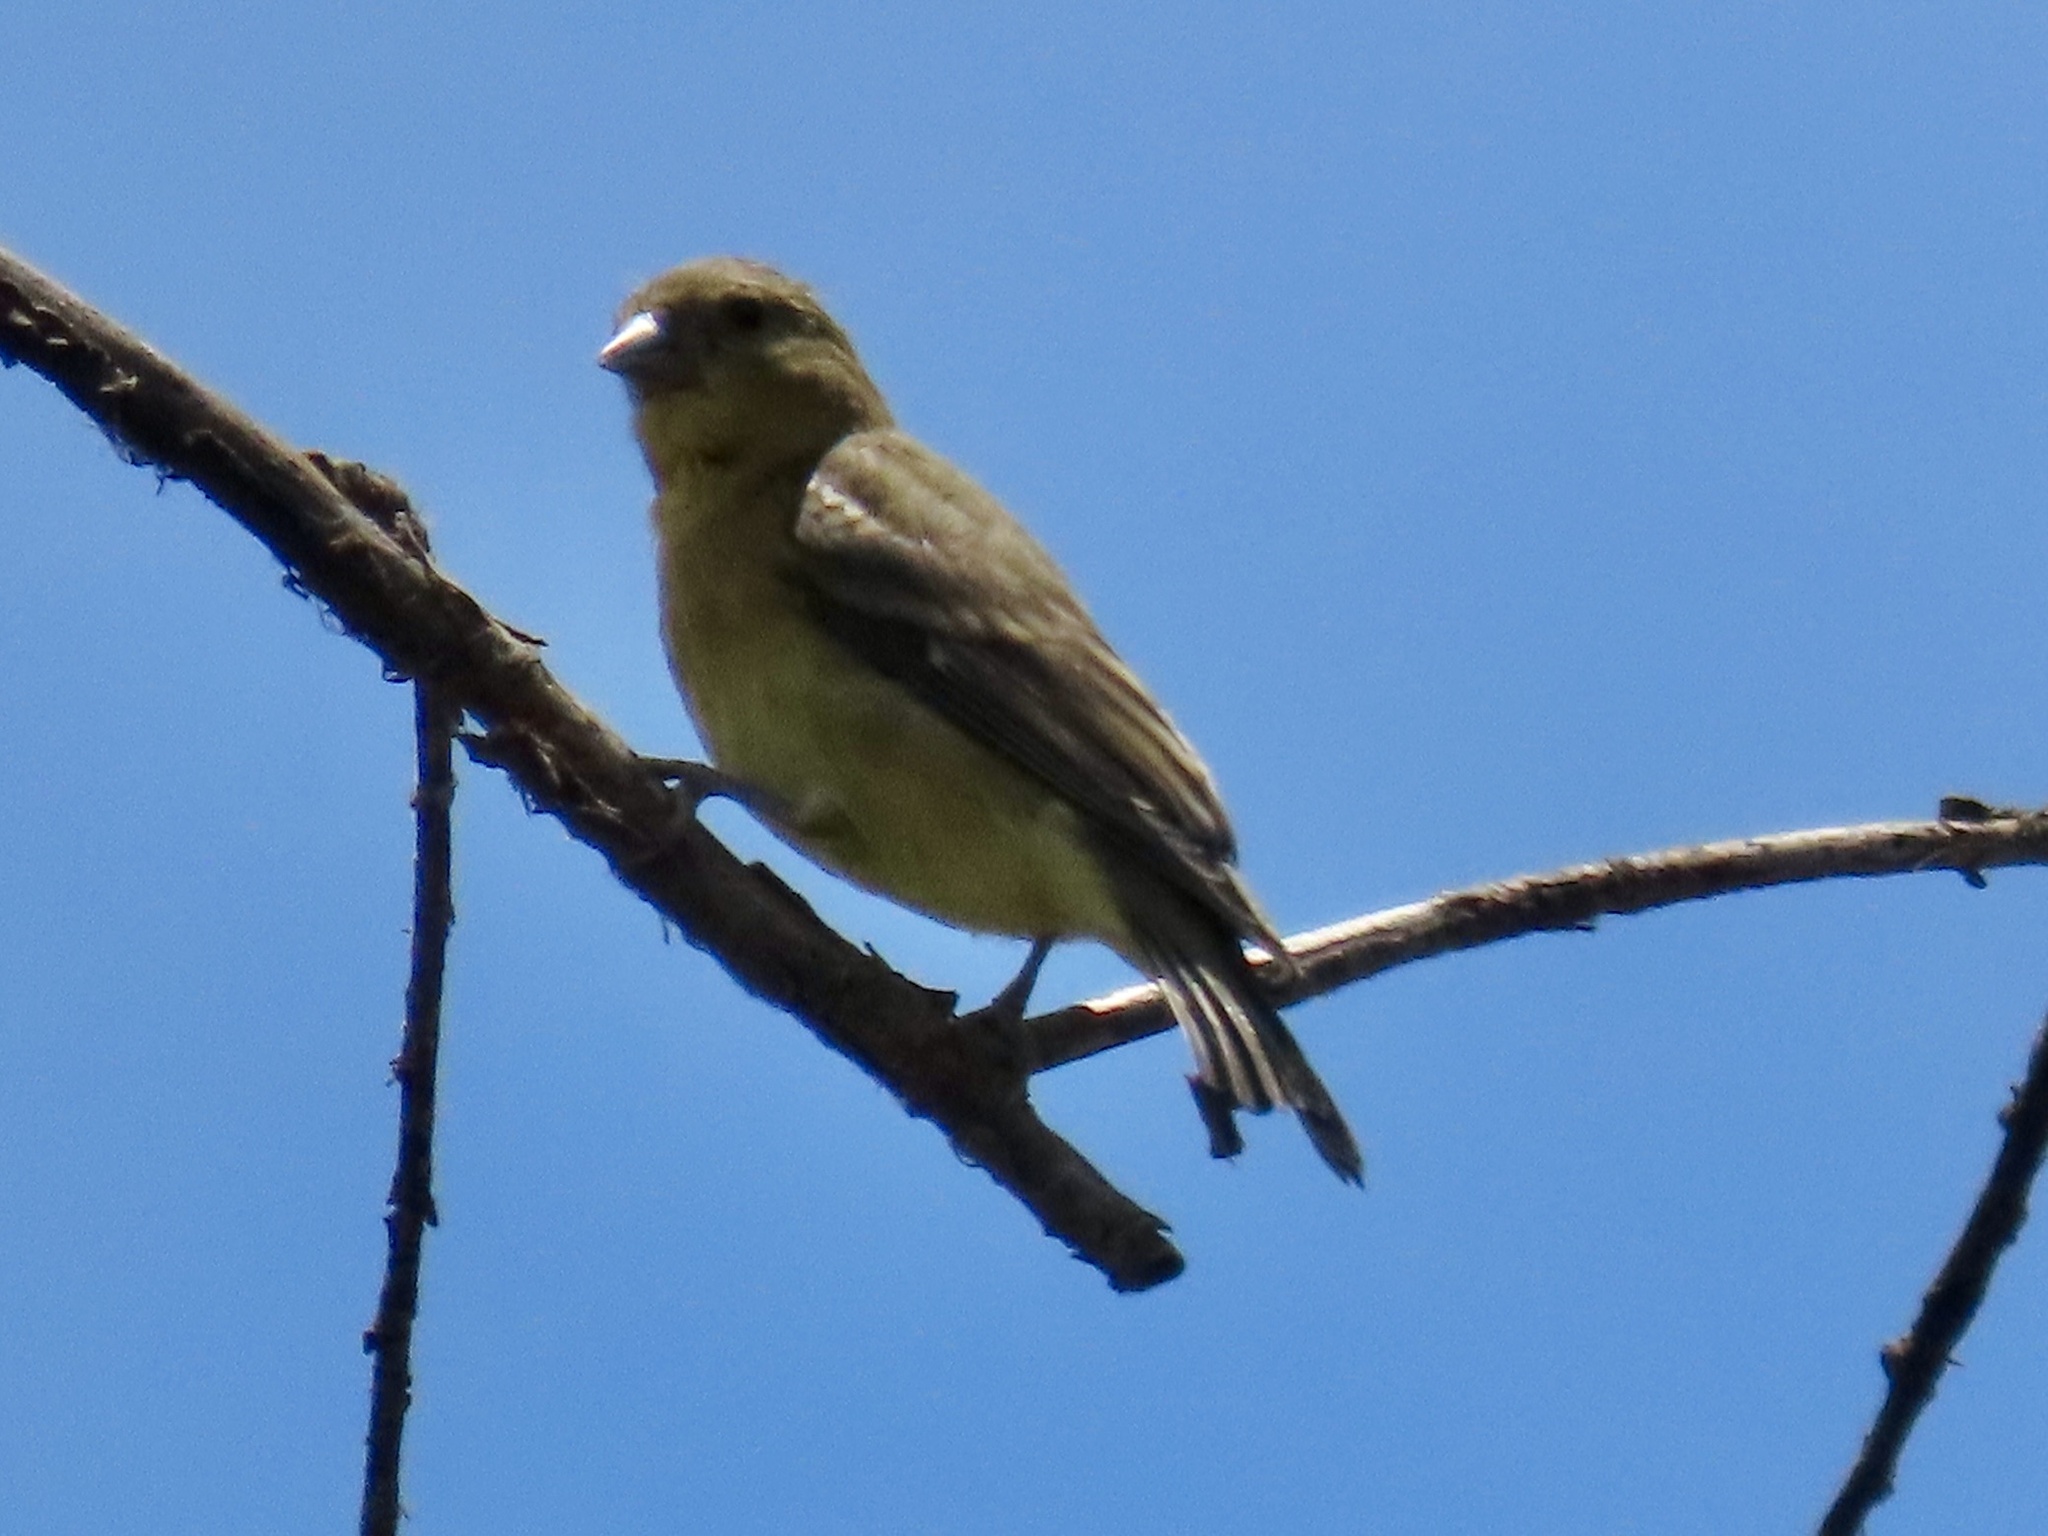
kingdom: Animalia
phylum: Chordata
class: Aves
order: Passeriformes
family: Fringillidae
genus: Spinus
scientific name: Spinus psaltria
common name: Lesser goldfinch
